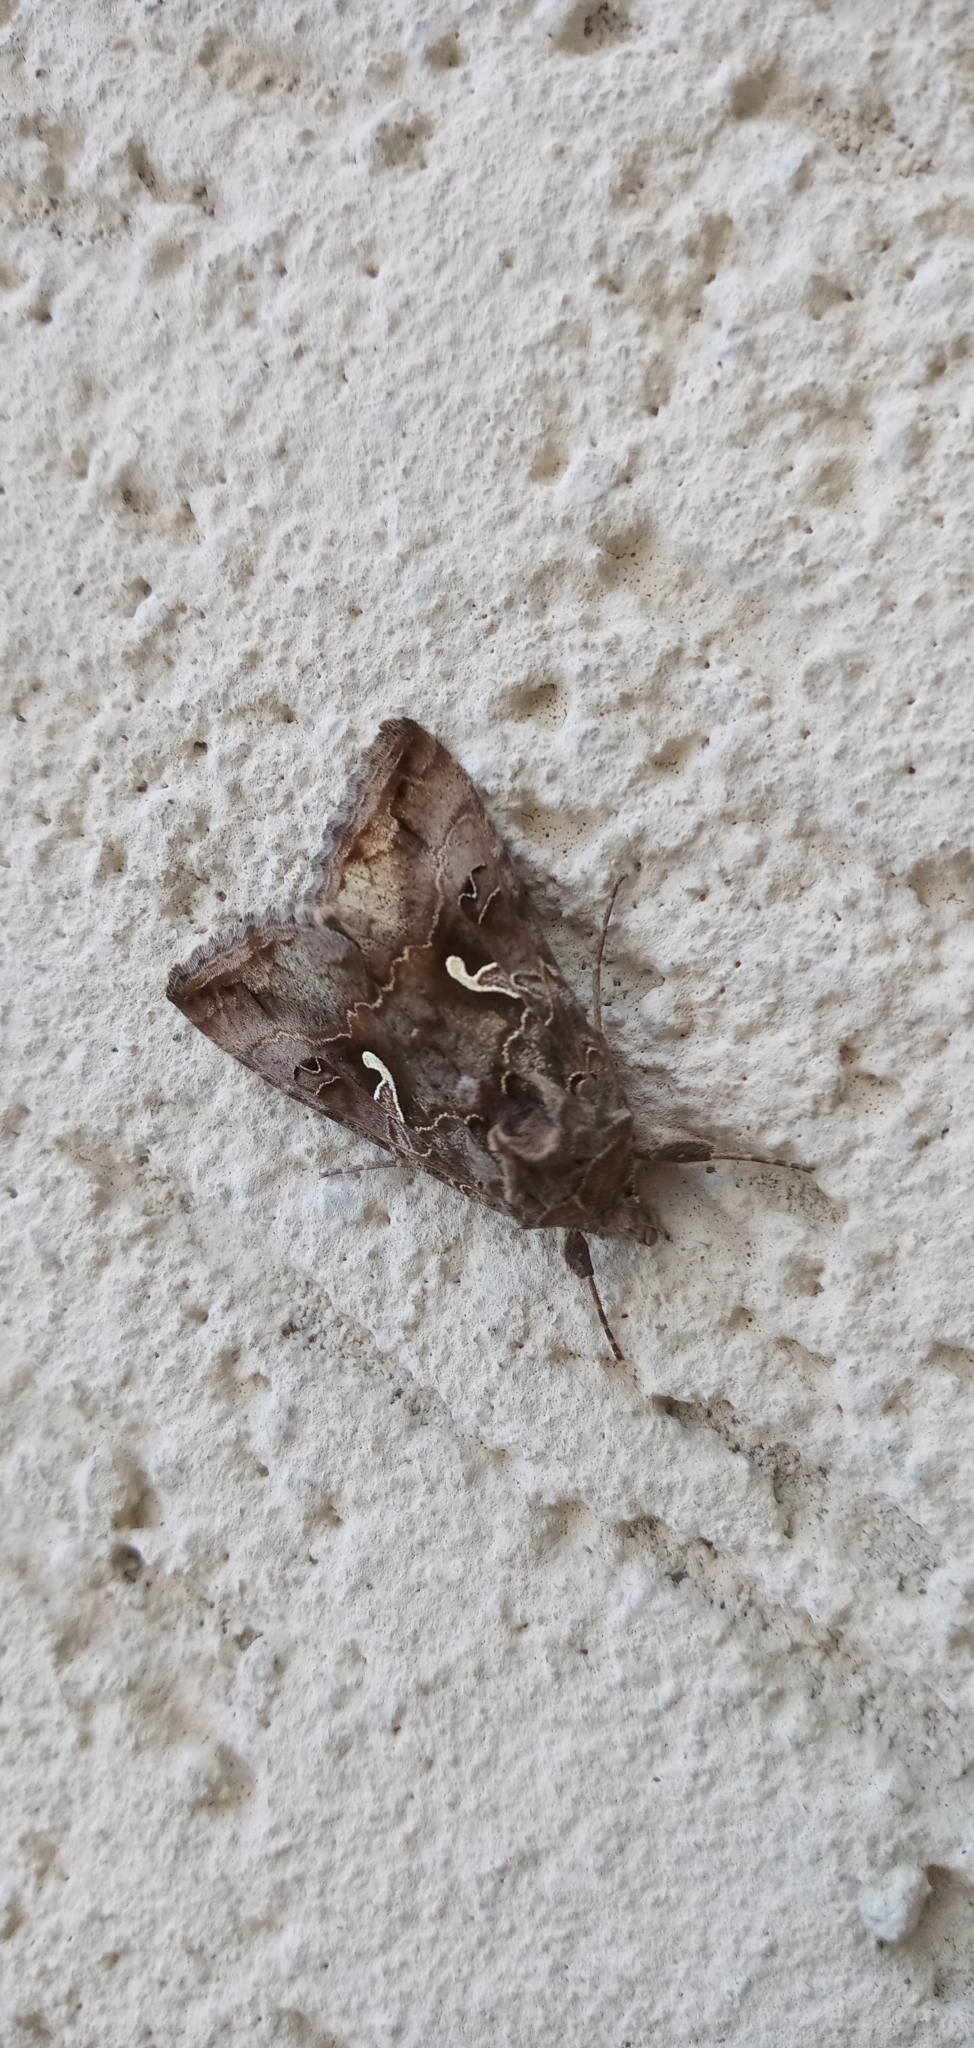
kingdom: Animalia
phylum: Arthropoda
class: Insecta
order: Lepidoptera
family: Noctuidae
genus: Autographa
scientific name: Autographa gamma
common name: Silver y
